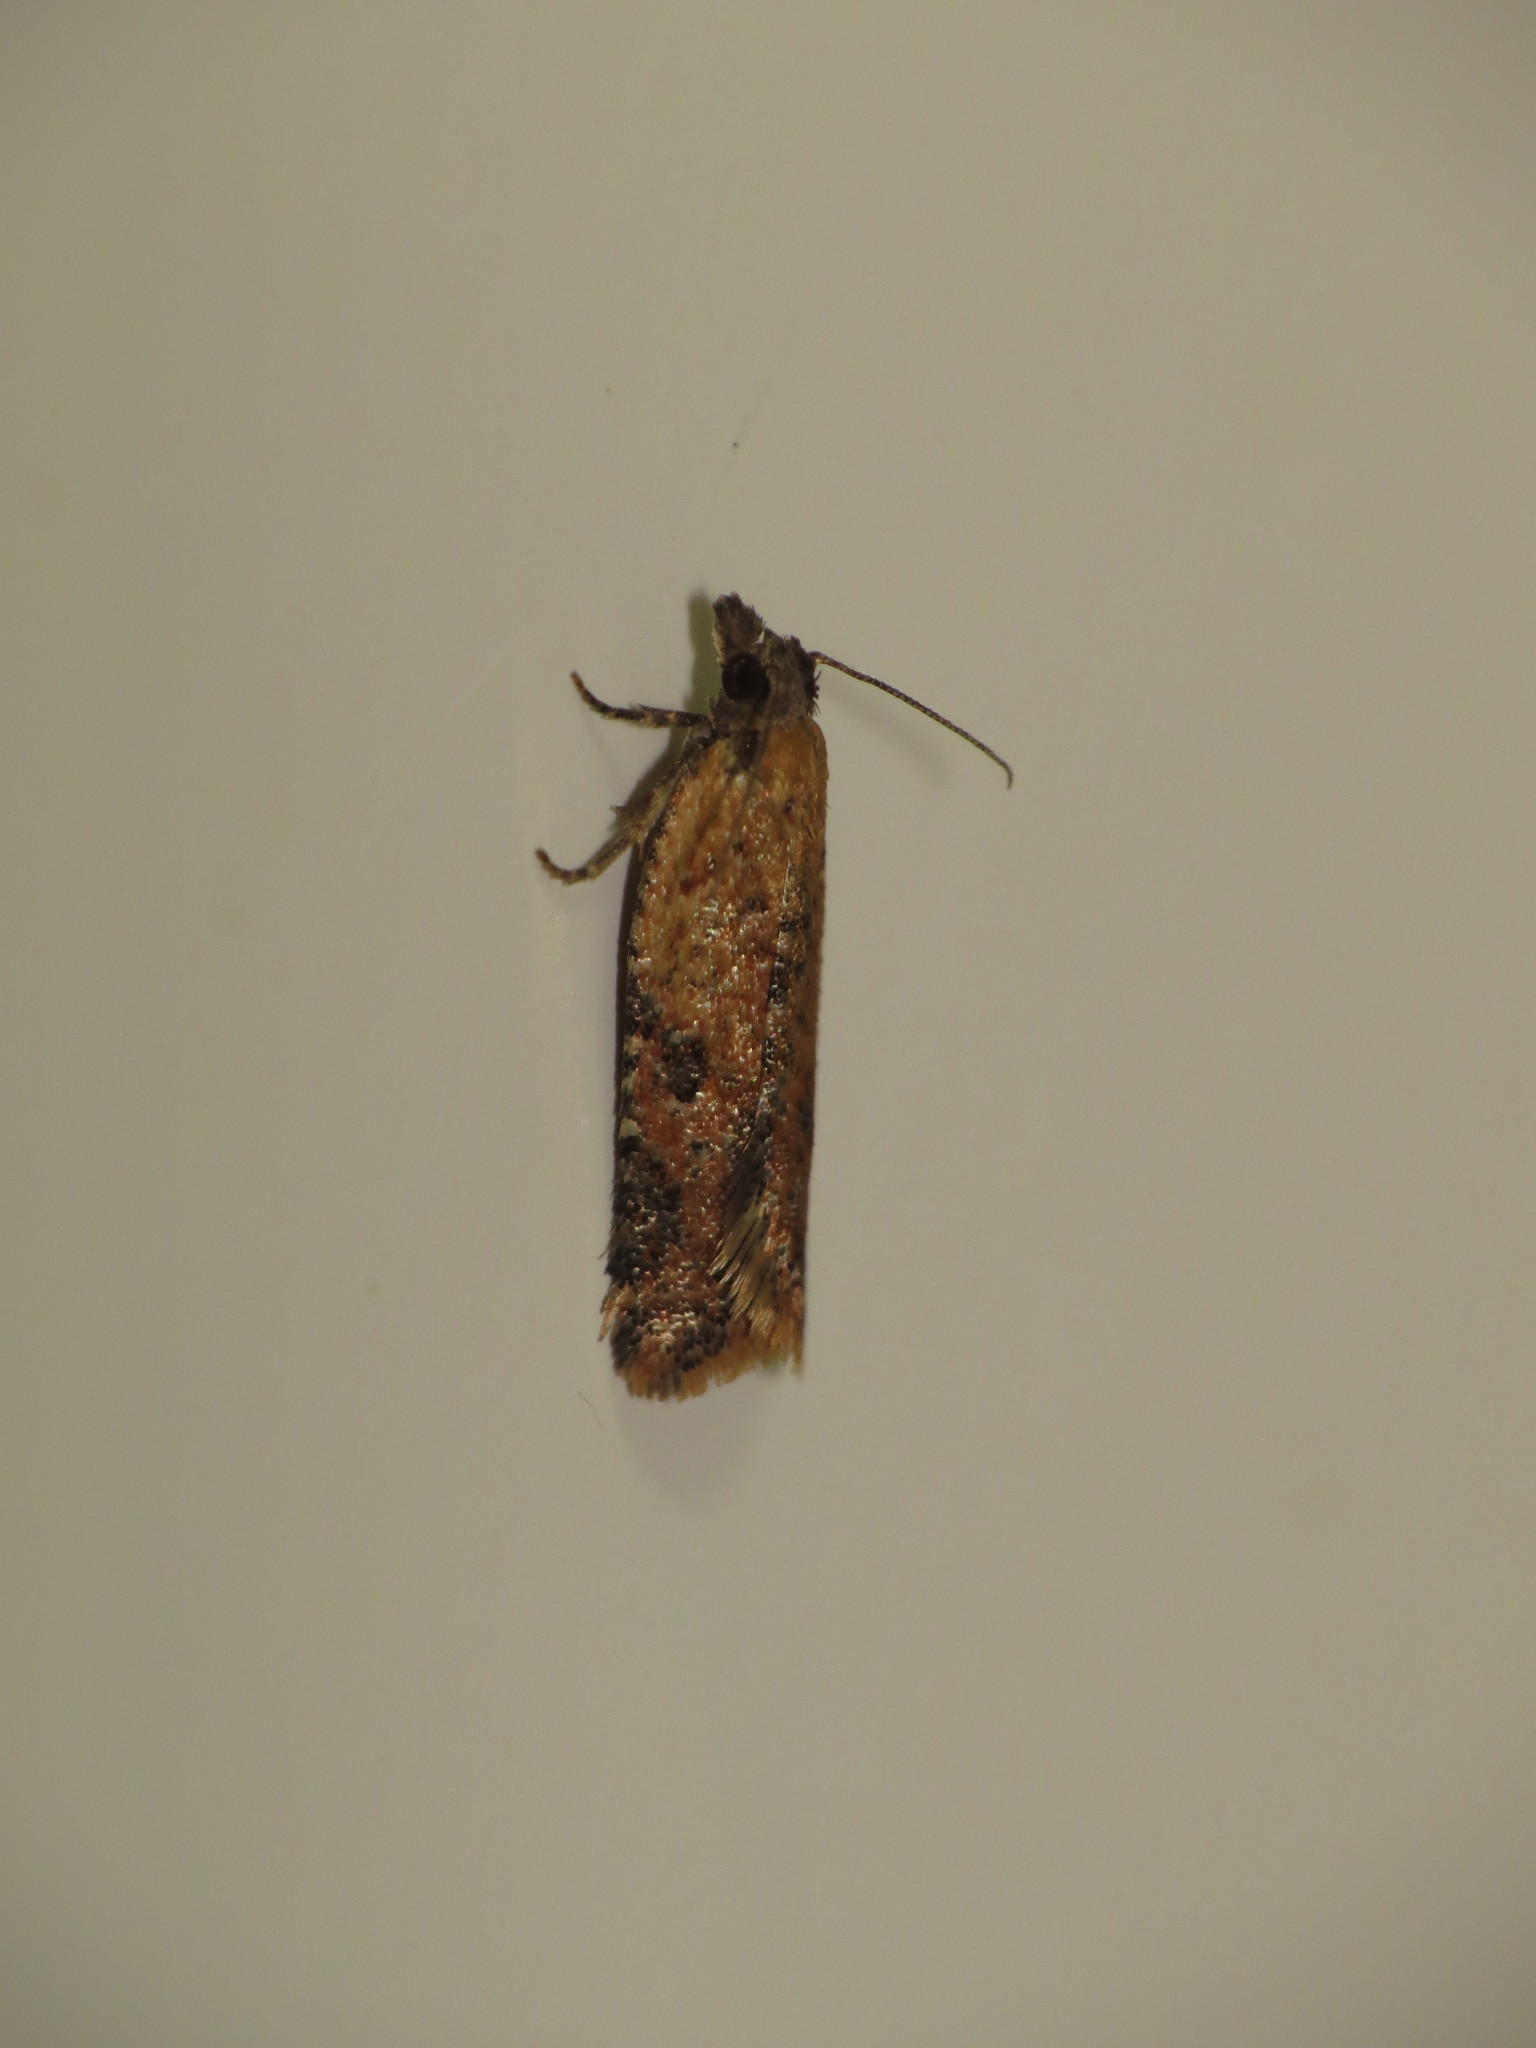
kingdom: Animalia
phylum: Arthropoda
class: Insecta
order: Lepidoptera
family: Tortricidae
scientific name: Tortricidae
